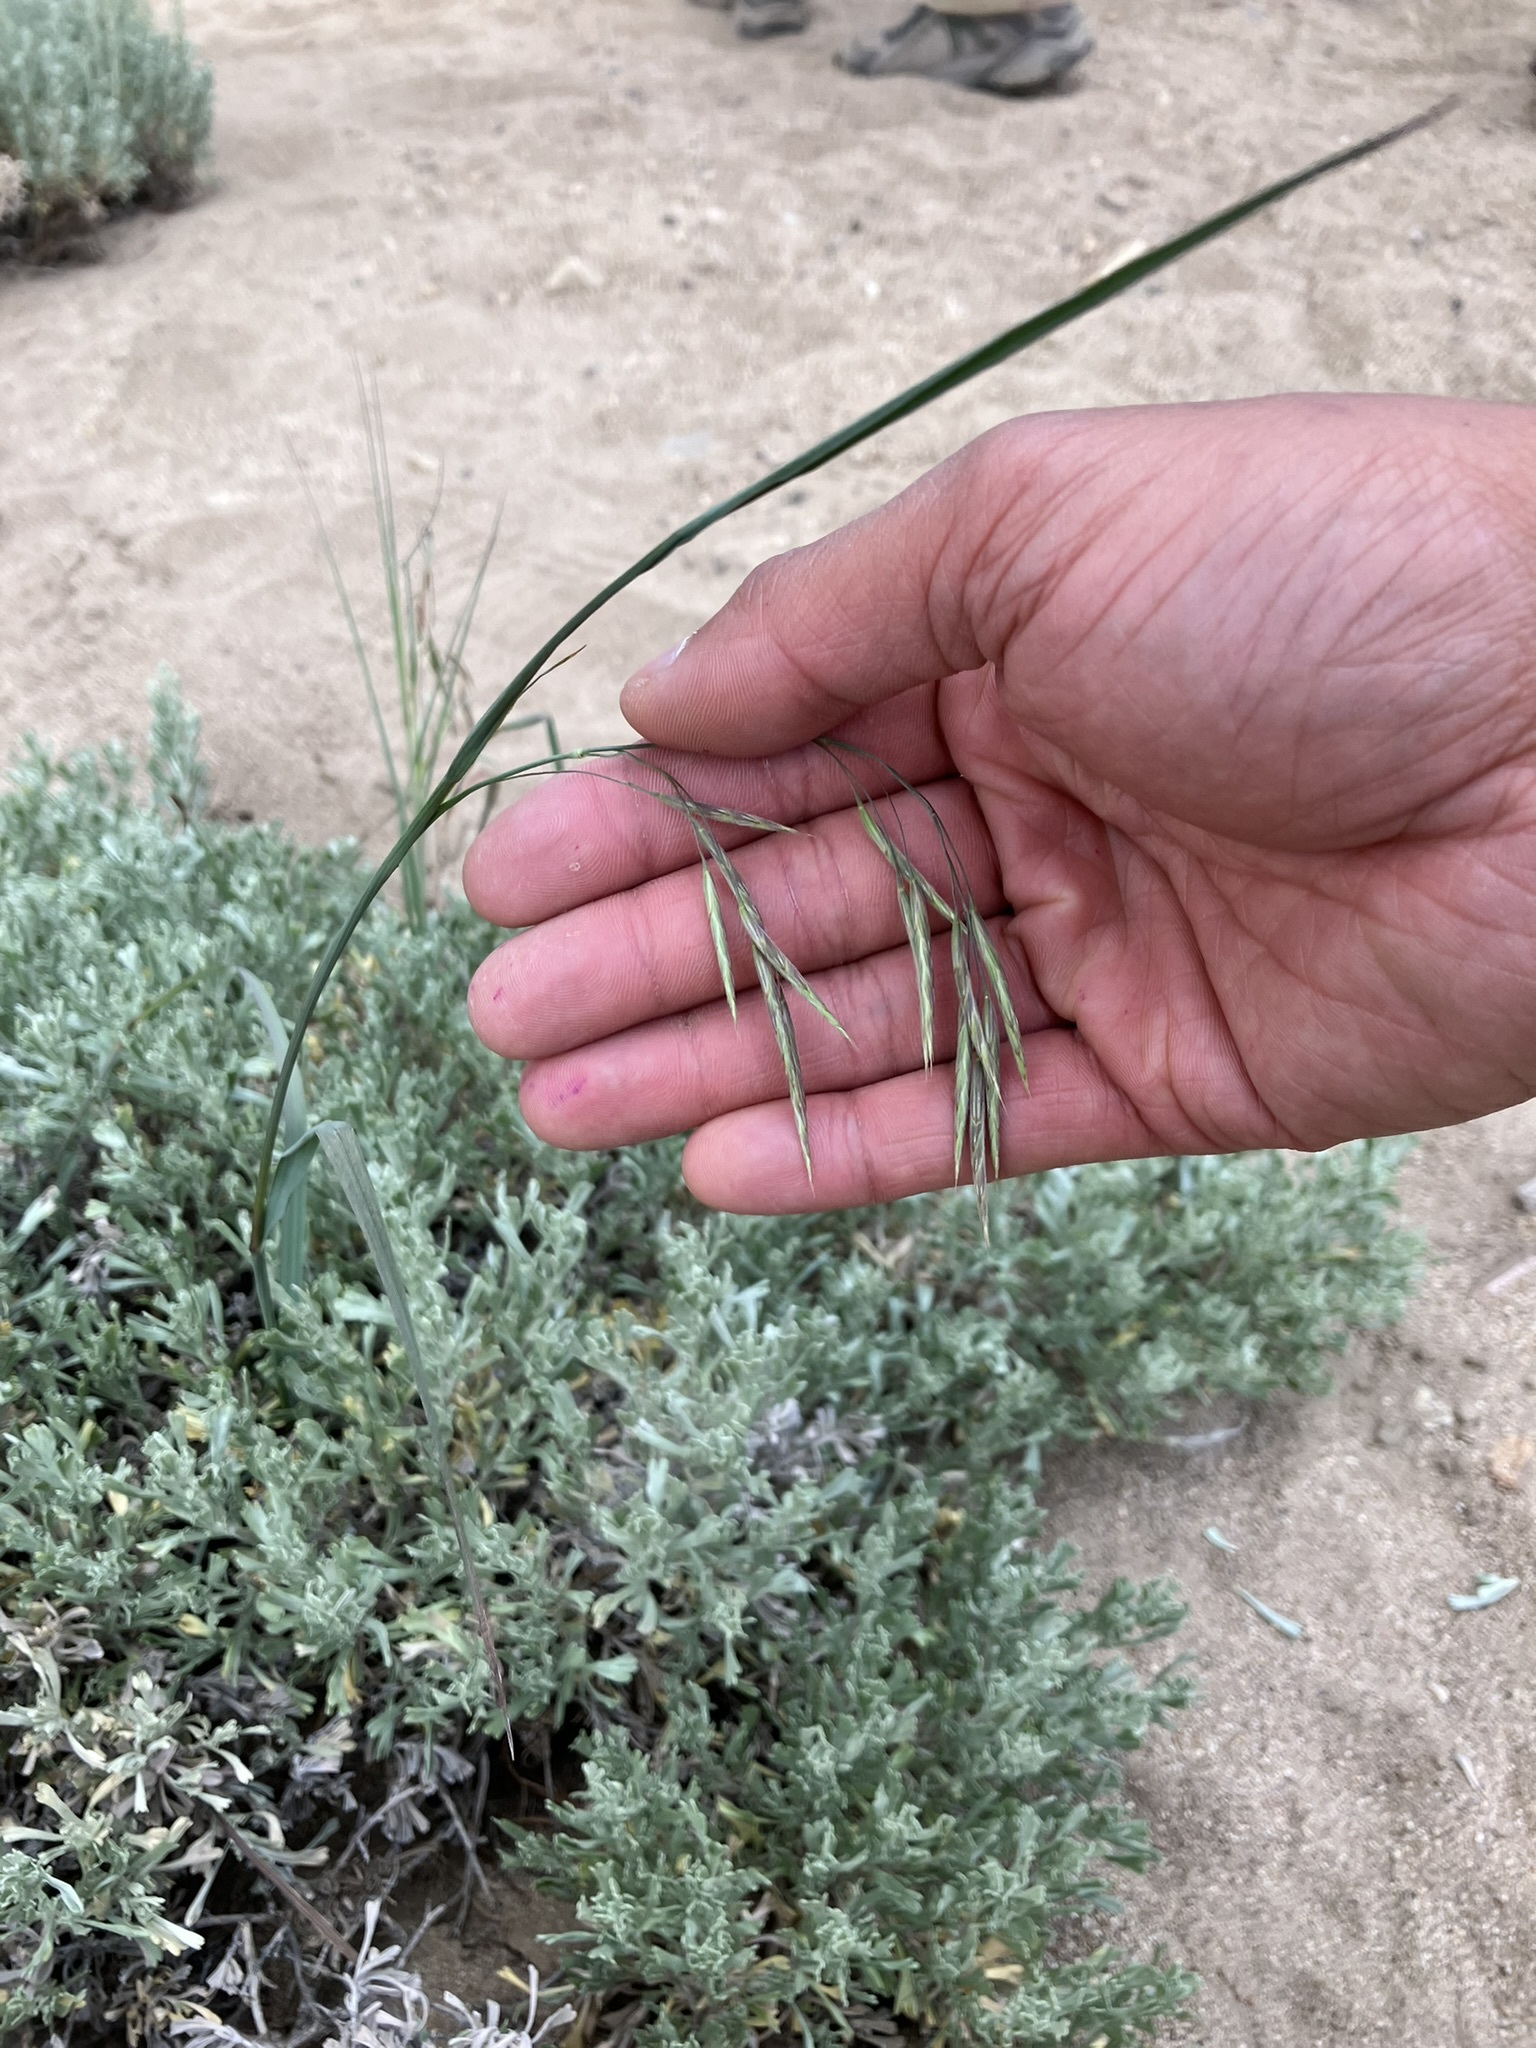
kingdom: Plantae
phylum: Tracheophyta
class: Liliopsida
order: Poales
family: Poaceae
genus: Bromus
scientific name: Bromus porteri
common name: Nodding brome
